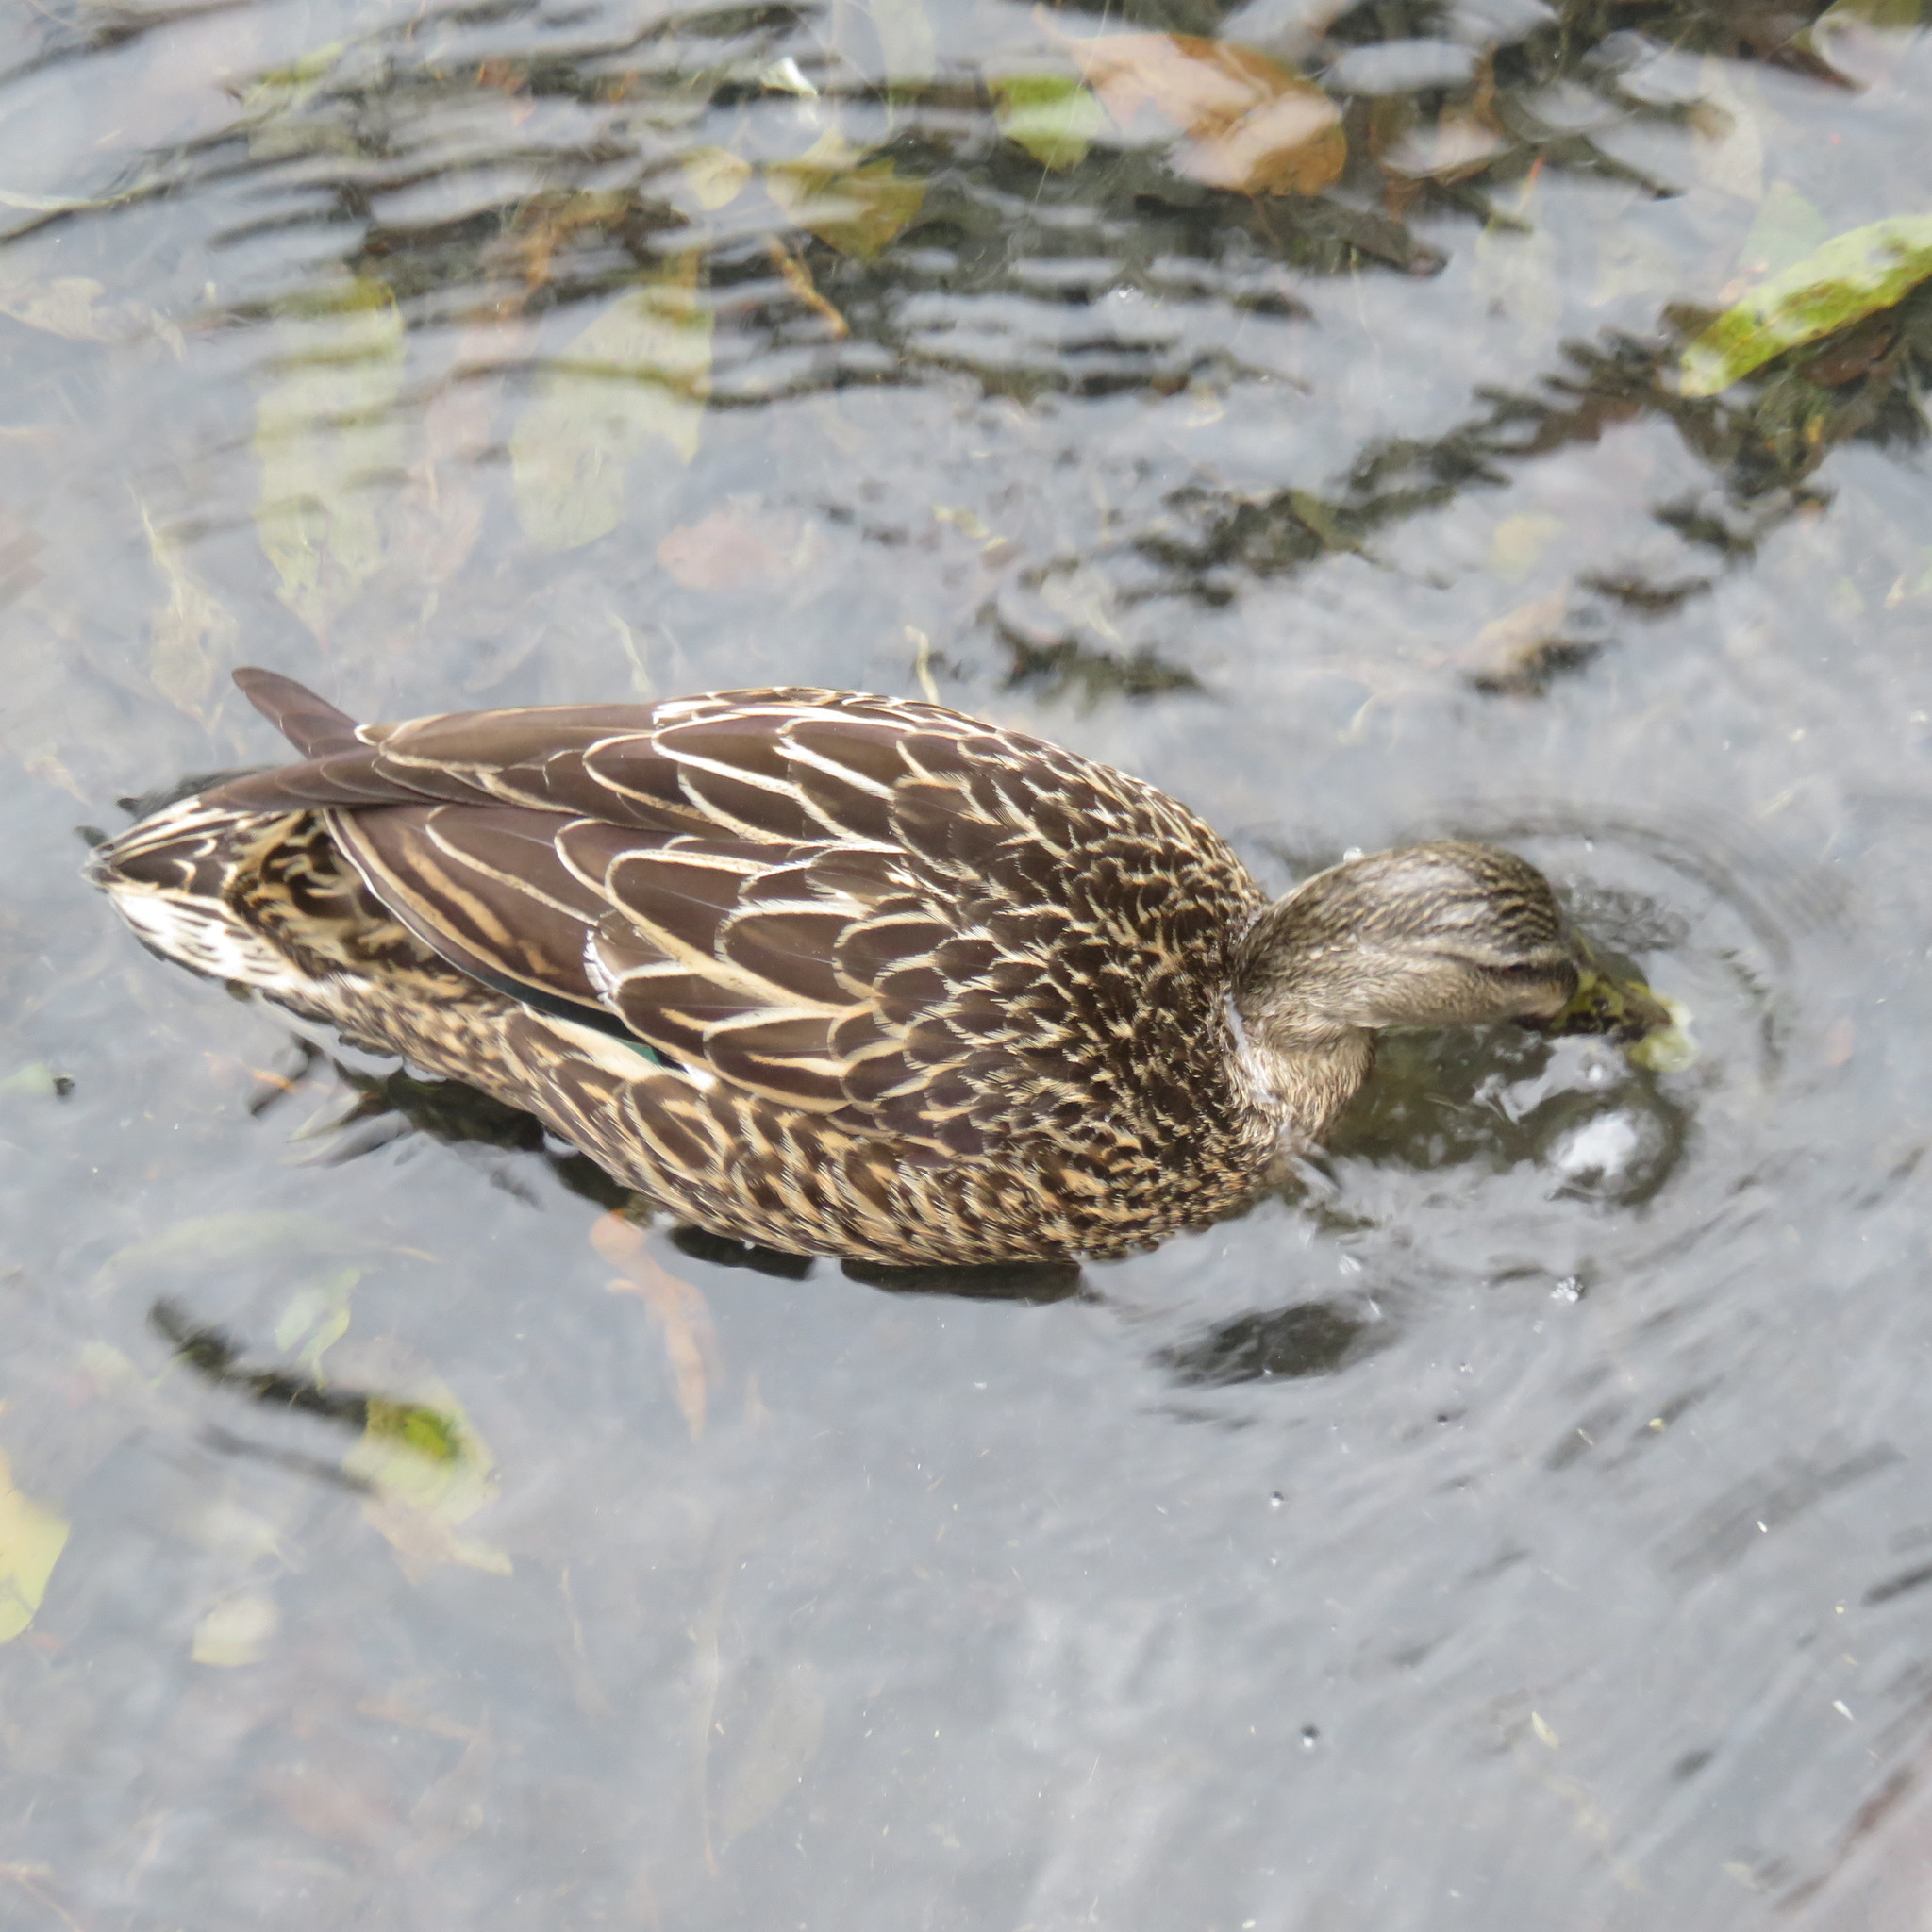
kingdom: Animalia
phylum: Chordata
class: Aves
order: Anseriformes
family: Anatidae
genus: Anas
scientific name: Anas
